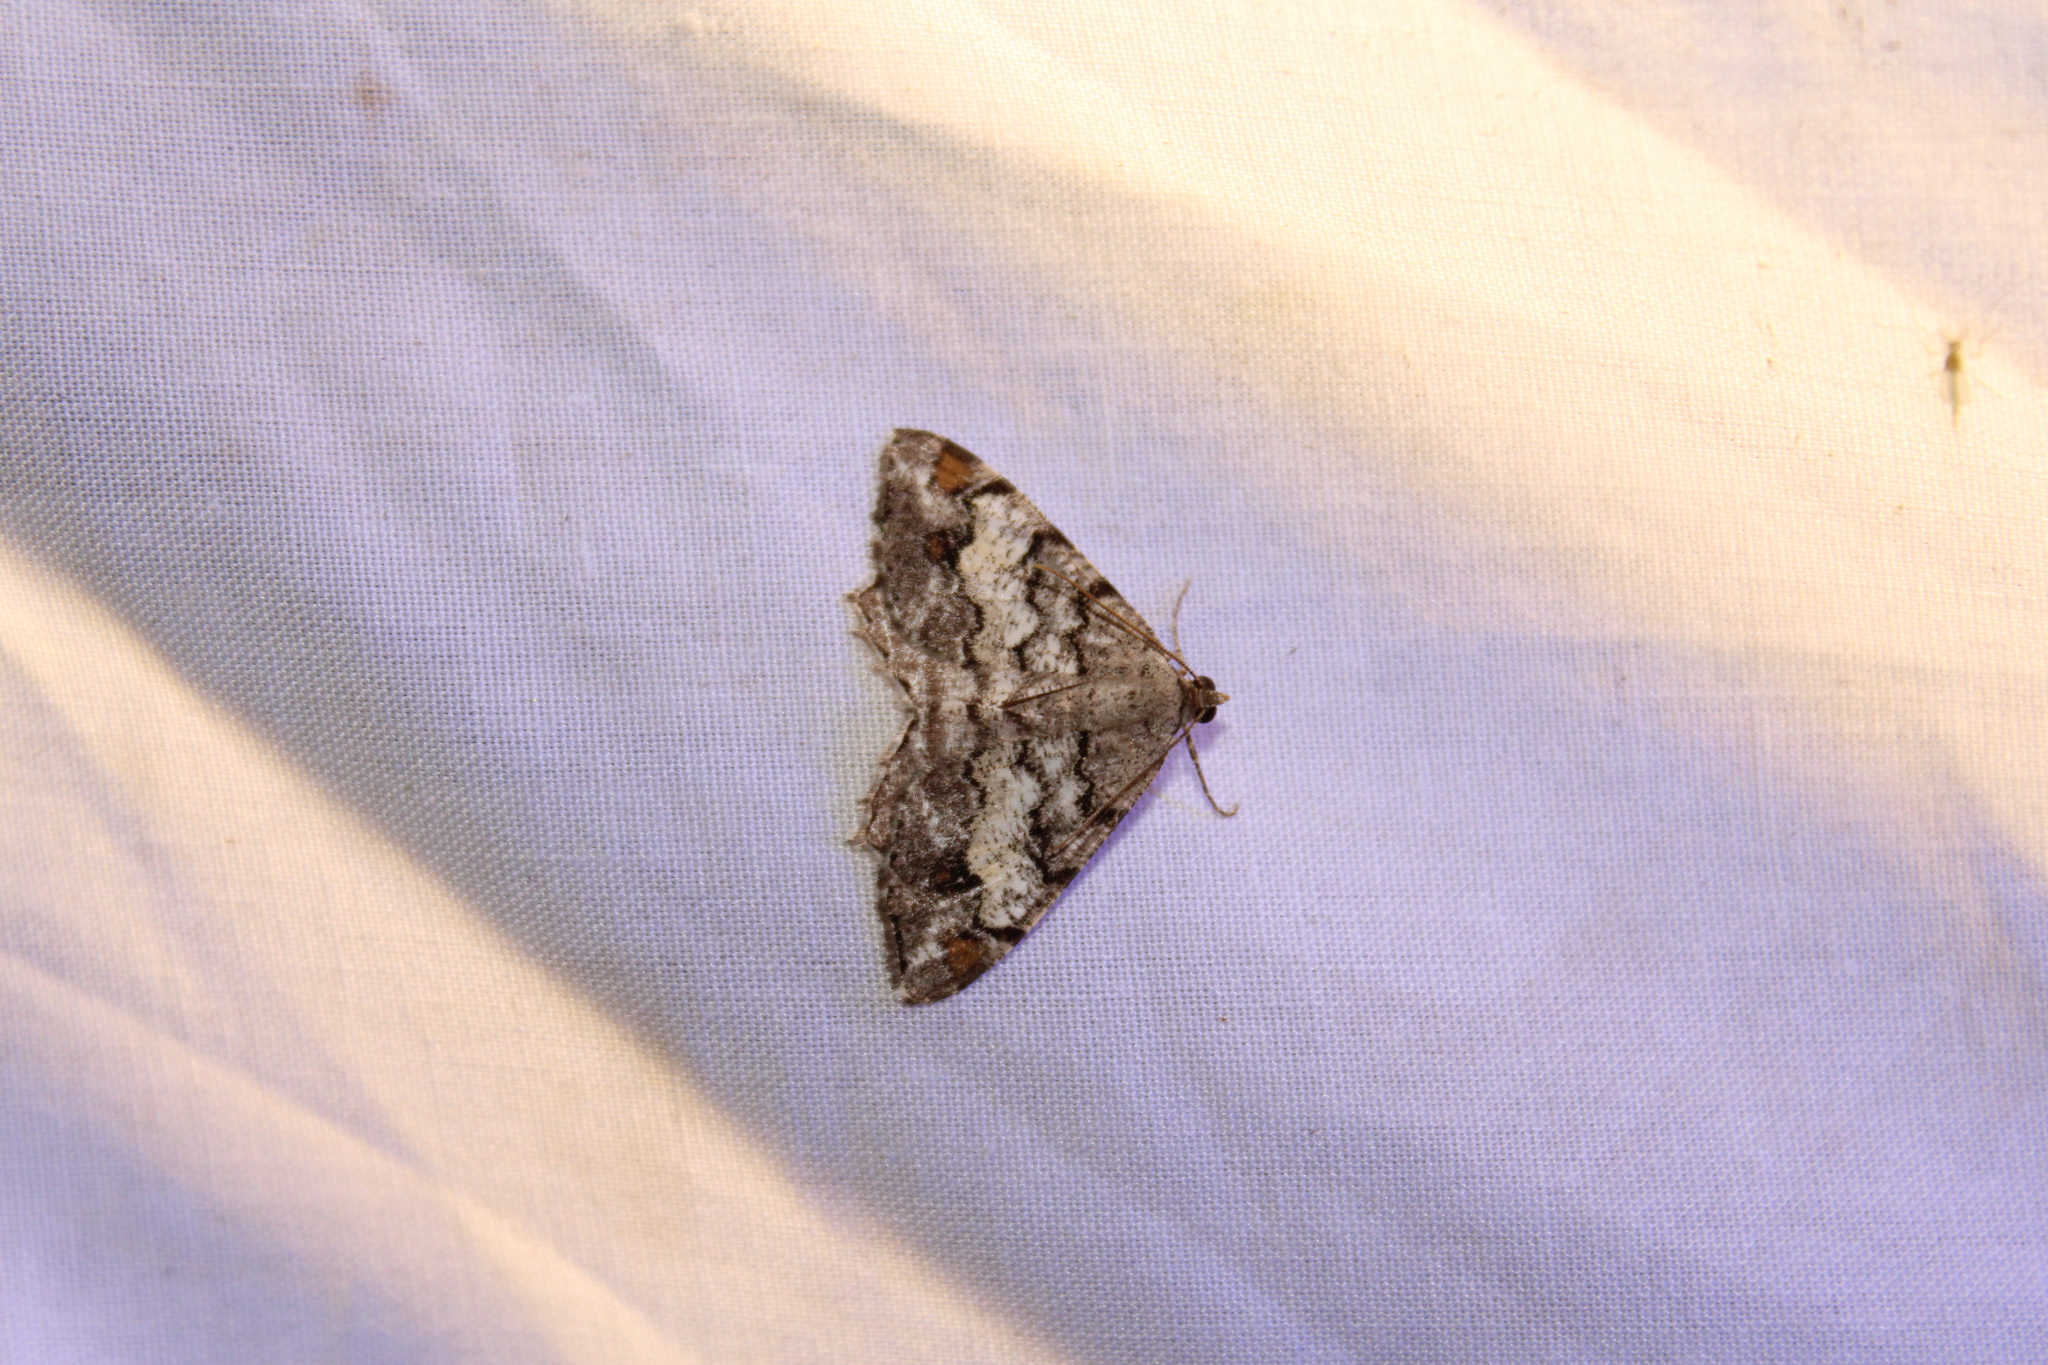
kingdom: Animalia
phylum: Arthropoda
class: Insecta
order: Lepidoptera
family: Geometridae
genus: Macaria
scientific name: Macaria granitata
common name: Granite moth
